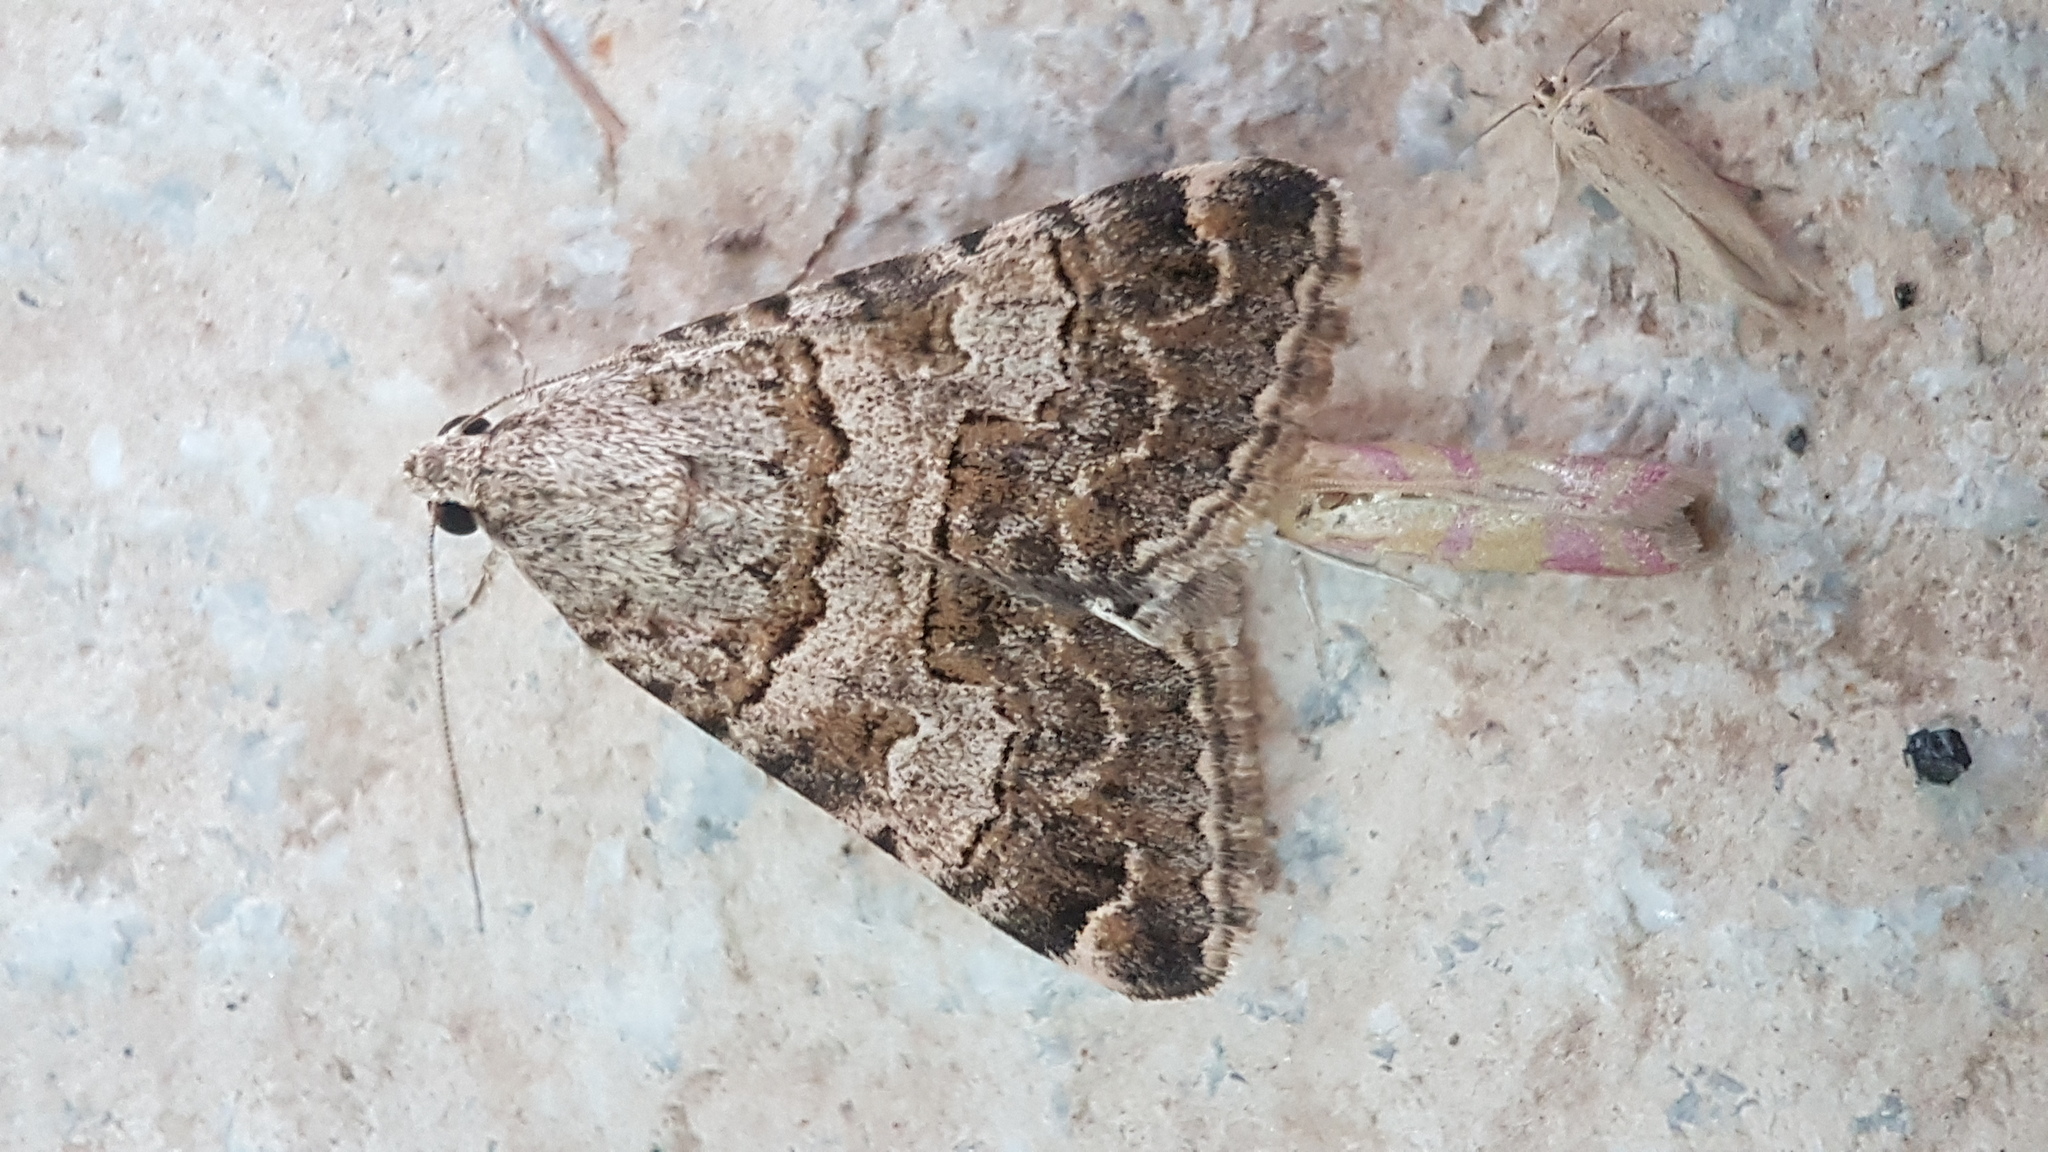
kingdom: Animalia
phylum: Arthropoda
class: Insecta
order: Lepidoptera
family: Erebidae
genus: Drasteria
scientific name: Drasteria flexuosa
